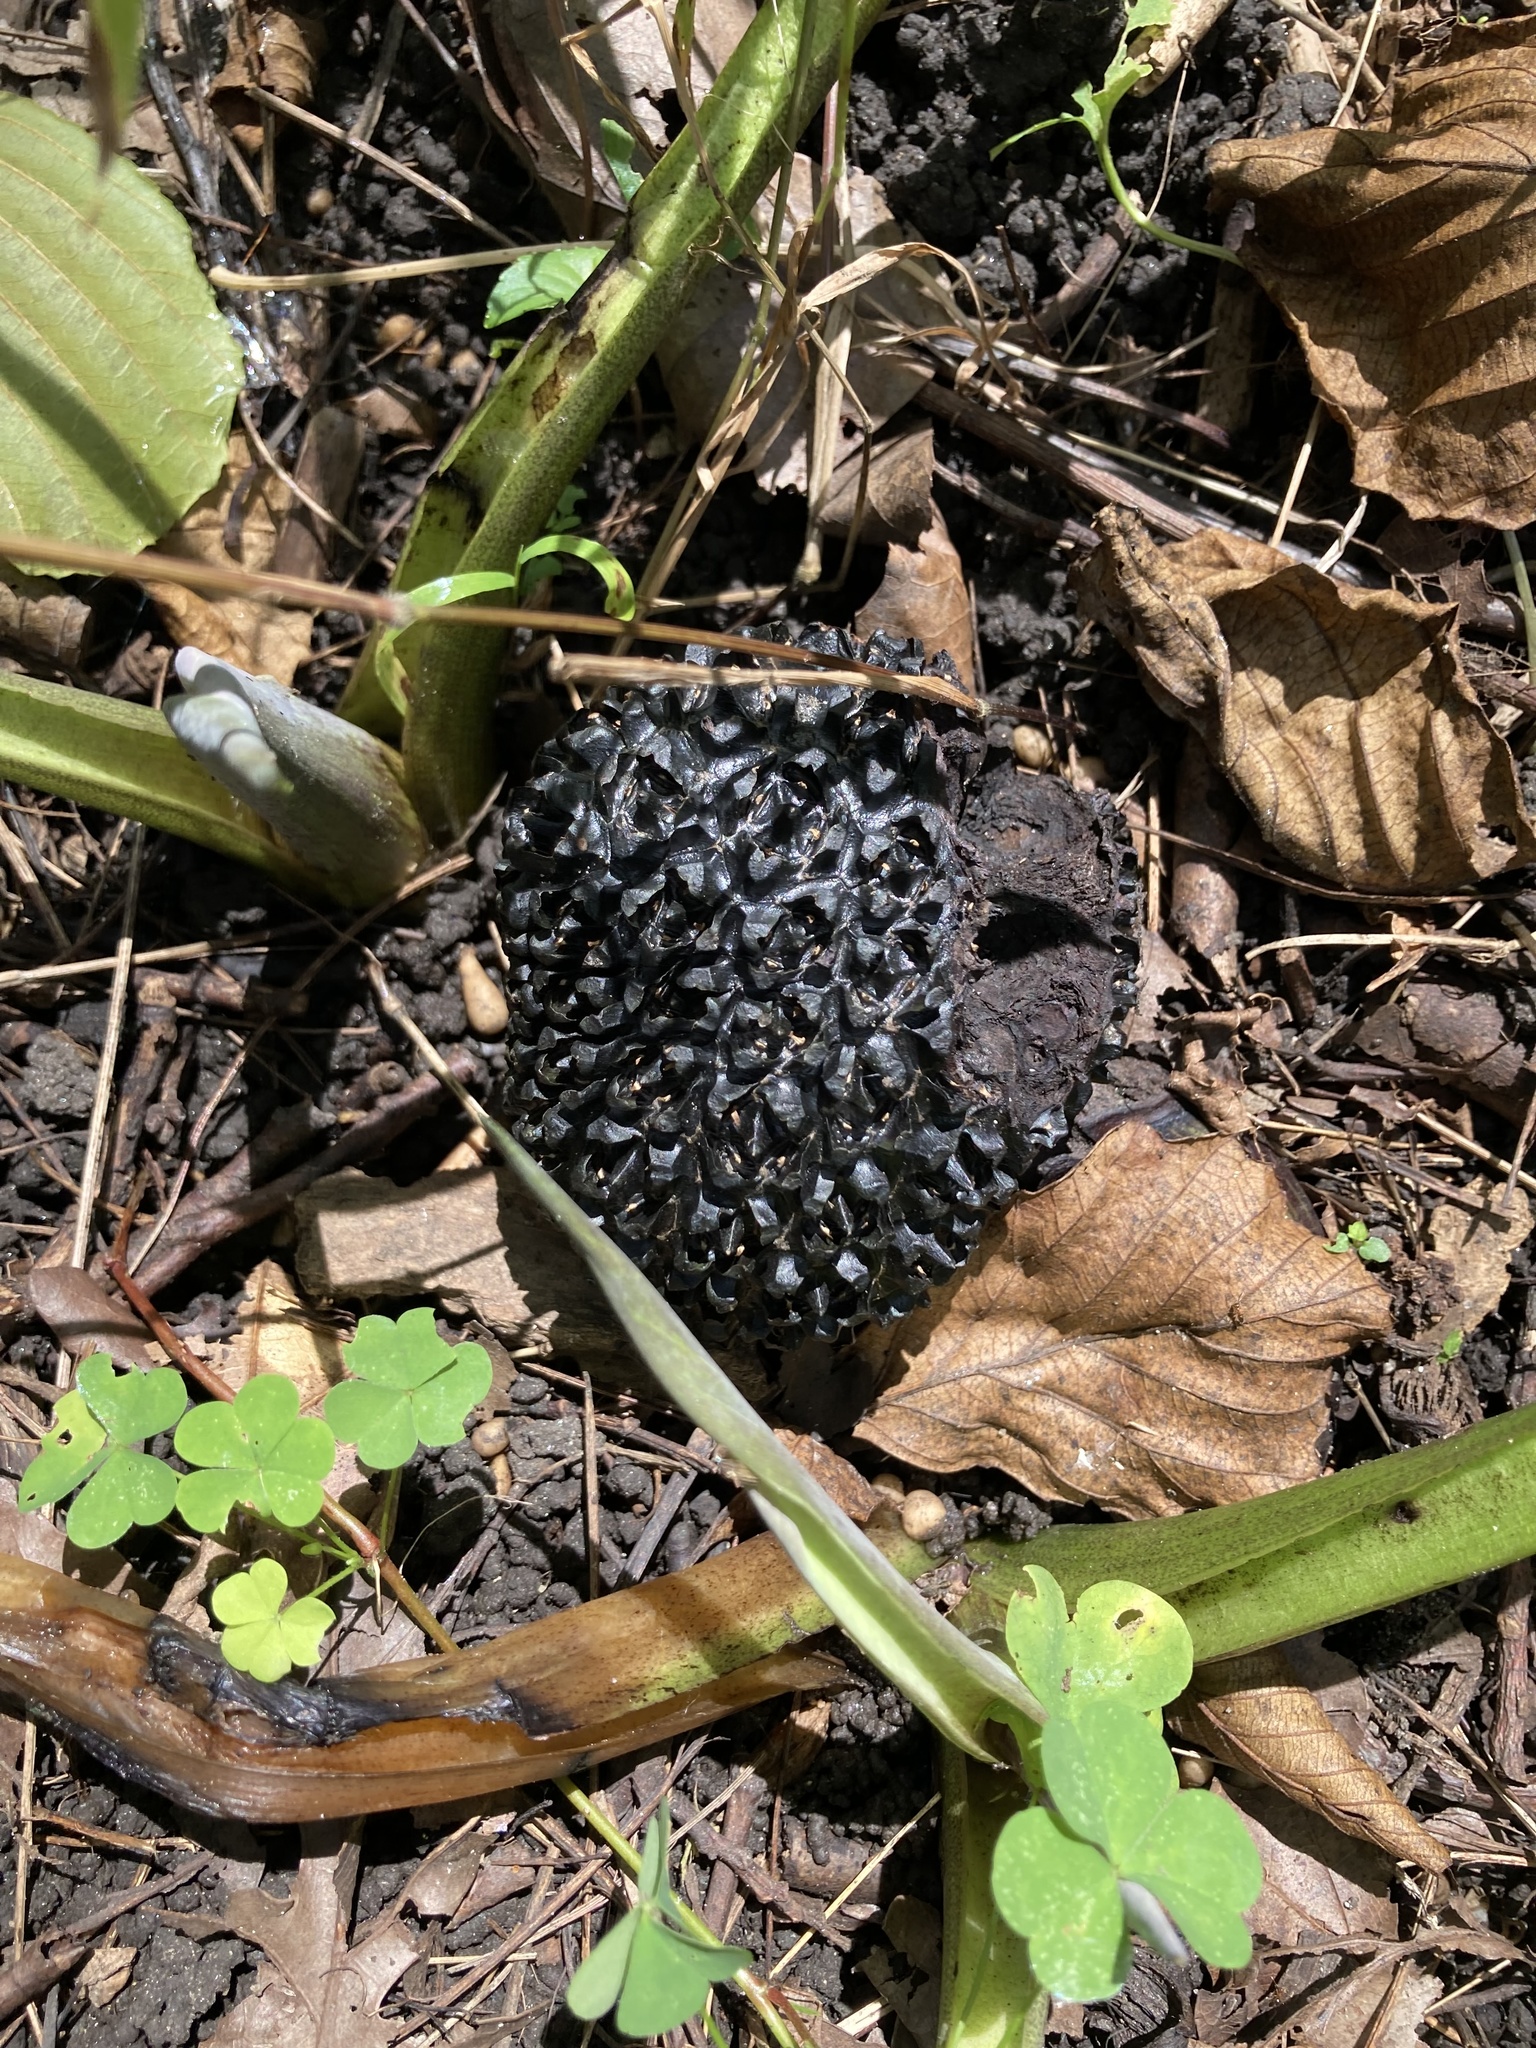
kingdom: Plantae
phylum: Tracheophyta
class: Liliopsida
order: Alismatales
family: Araceae
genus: Symplocarpus
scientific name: Symplocarpus foetidus
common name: Eastern skunk cabbage
